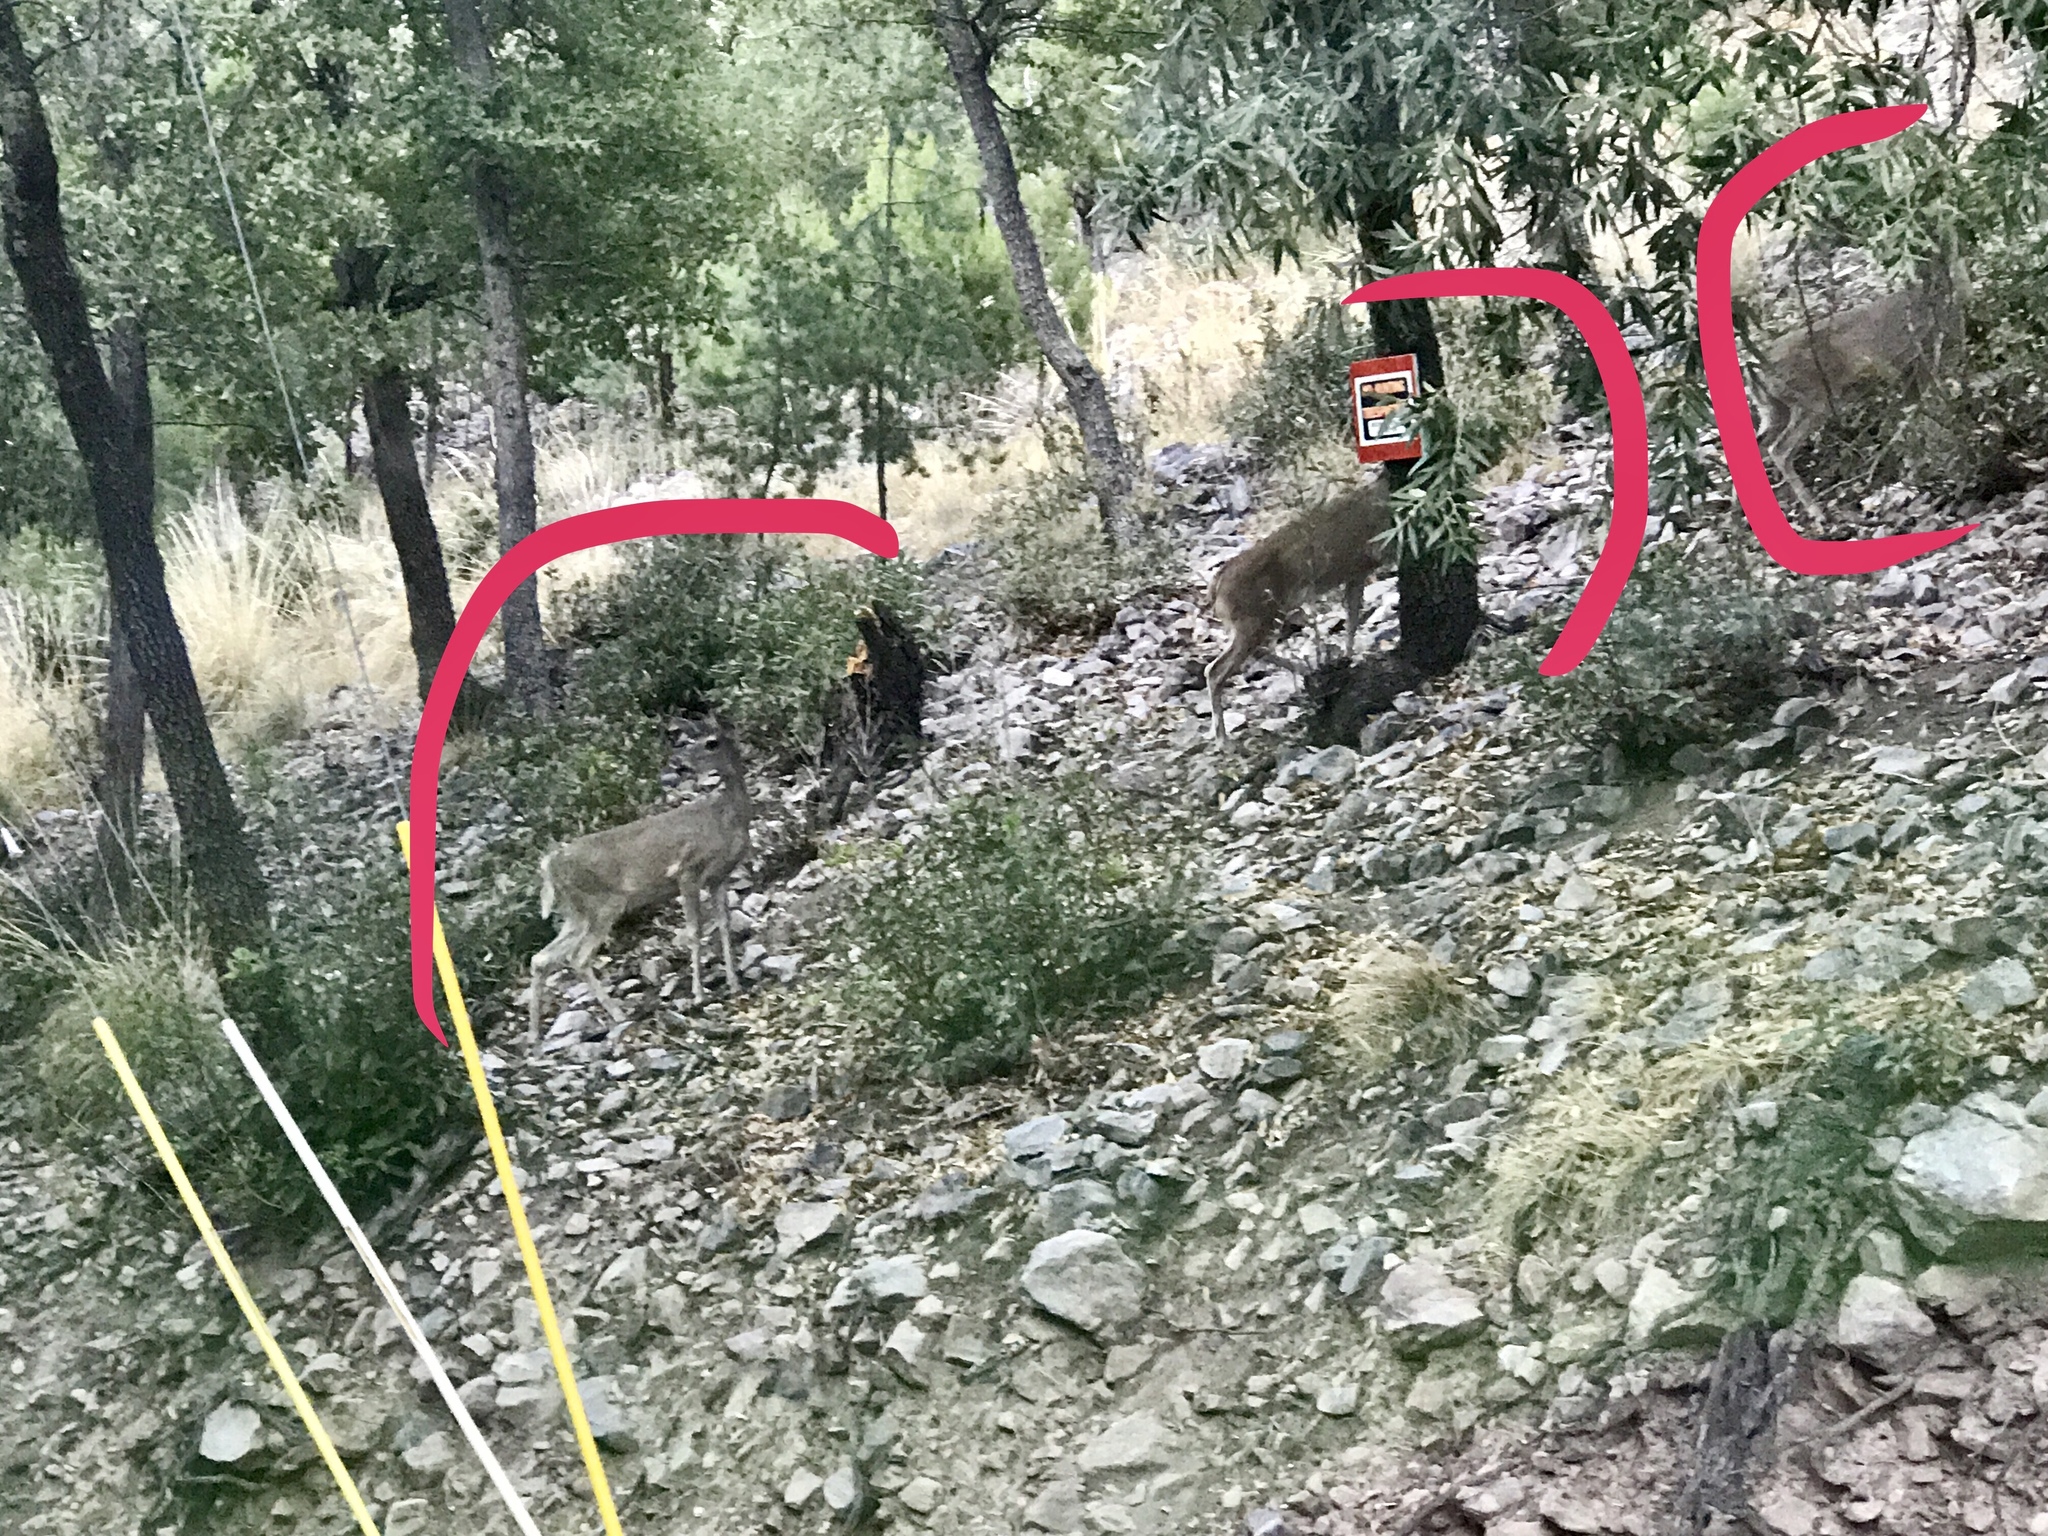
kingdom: Animalia
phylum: Chordata
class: Mammalia
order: Artiodactyla
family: Cervidae
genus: Odocoileus
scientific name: Odocoileus virginianus
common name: White-tailed deer
